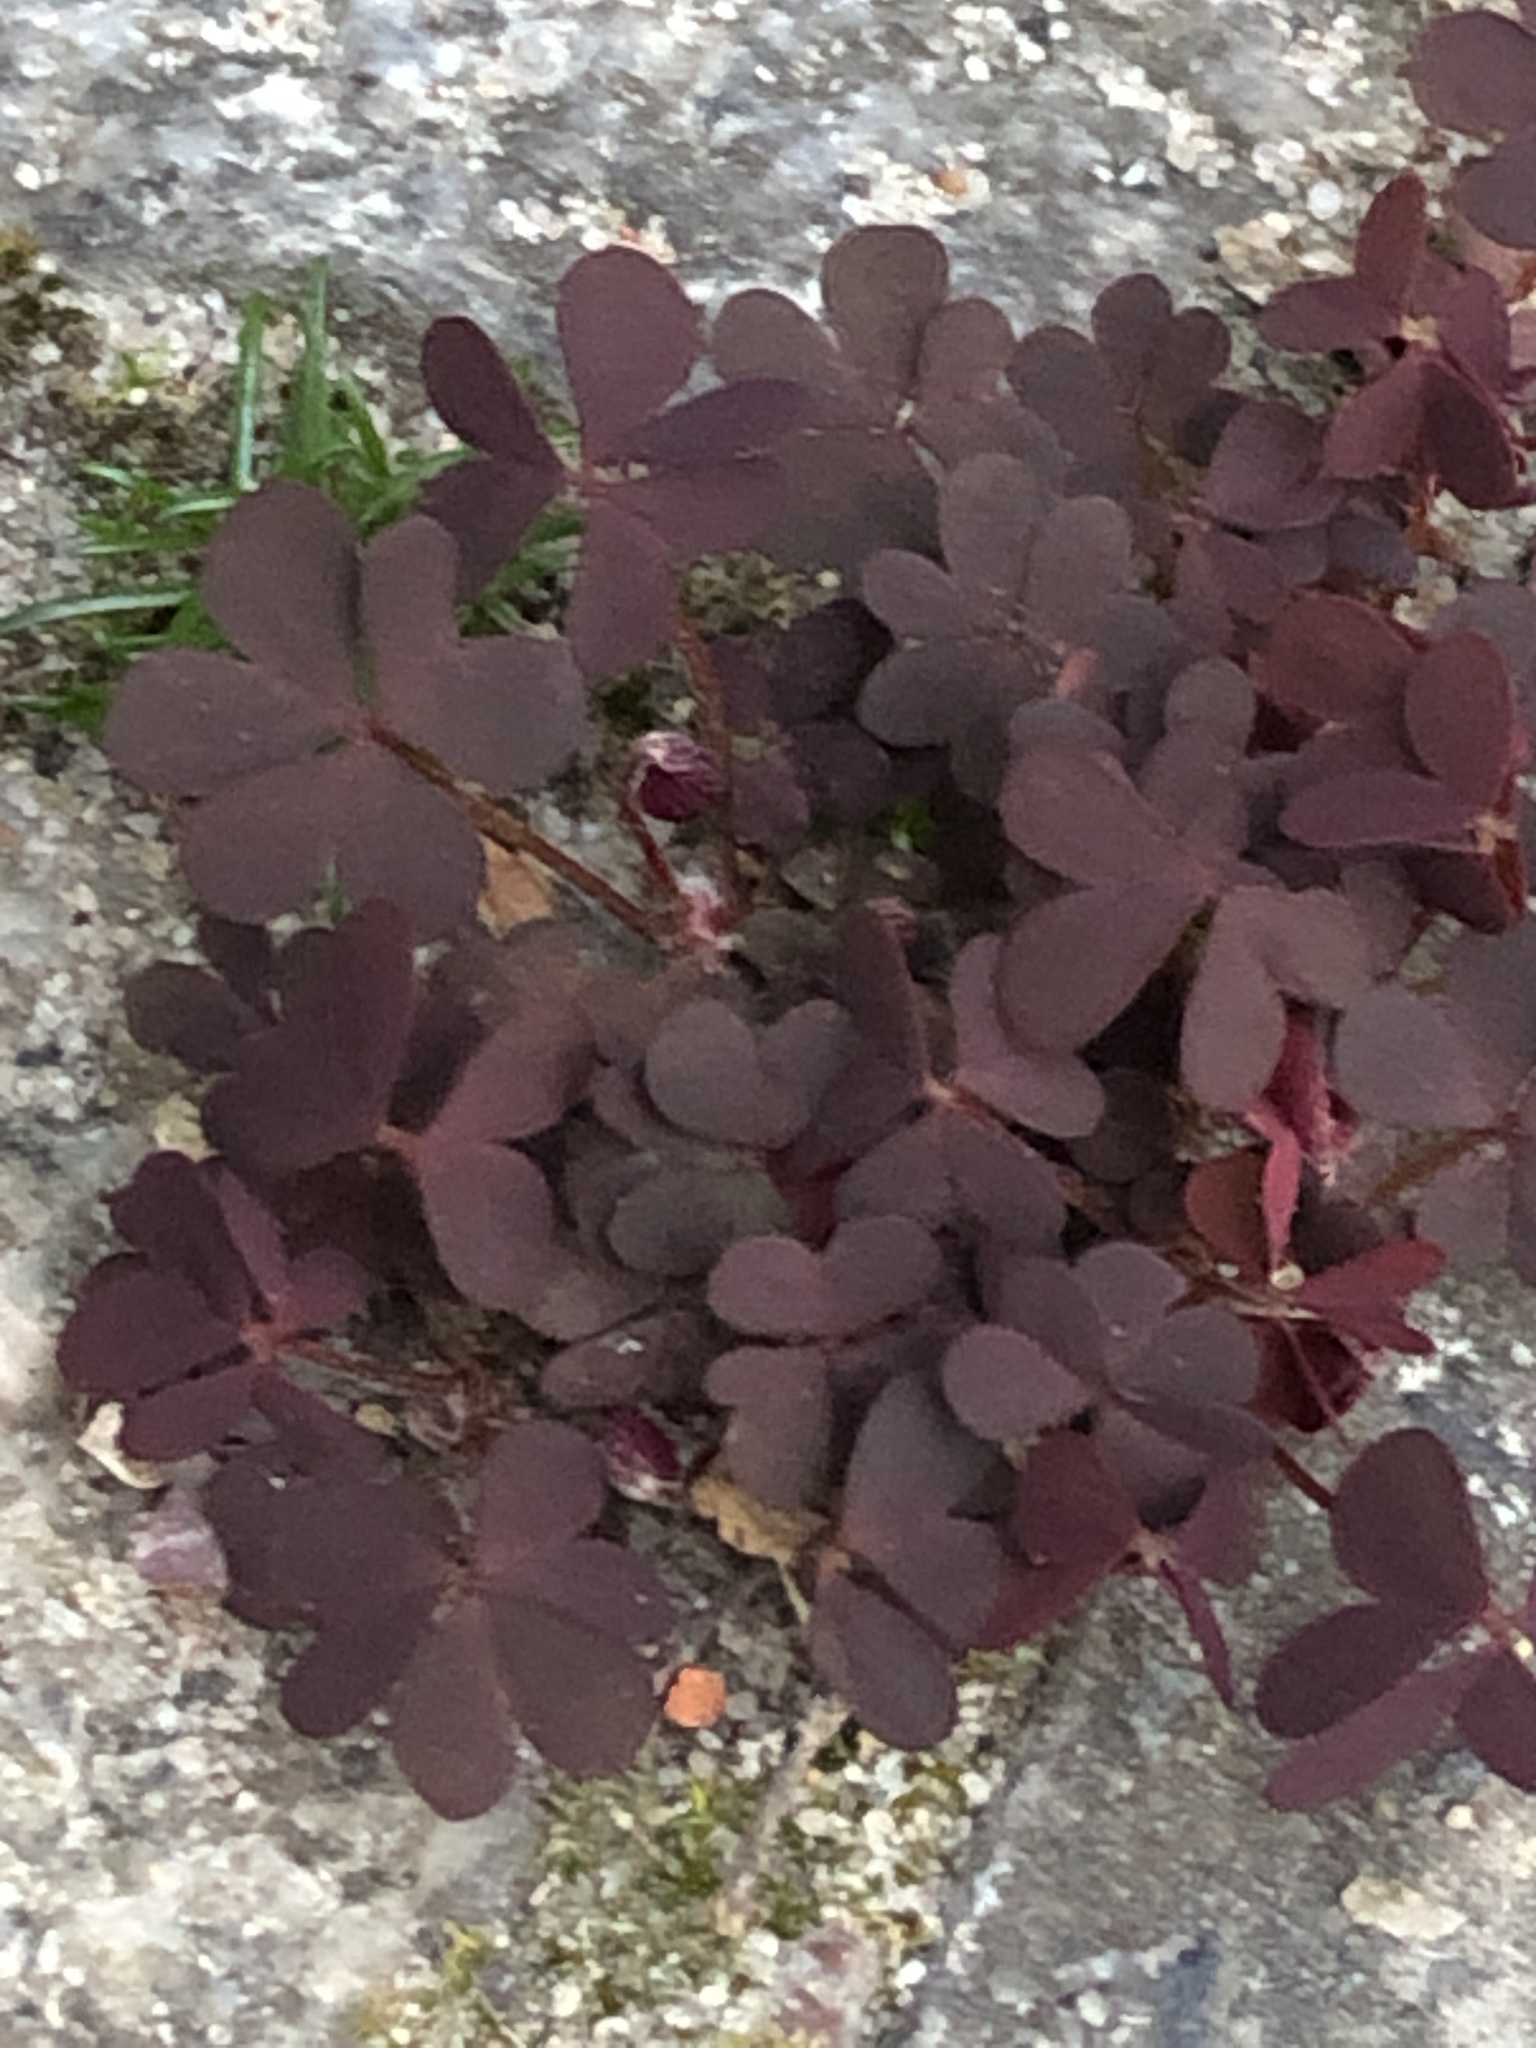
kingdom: Plantae
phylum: Tracheophyta
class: Magnoliopsida
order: Oxalidales
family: Oxalidaceae
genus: Oxalis
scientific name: Oxalis corniculata
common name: Procumbent yellow-sorrel
